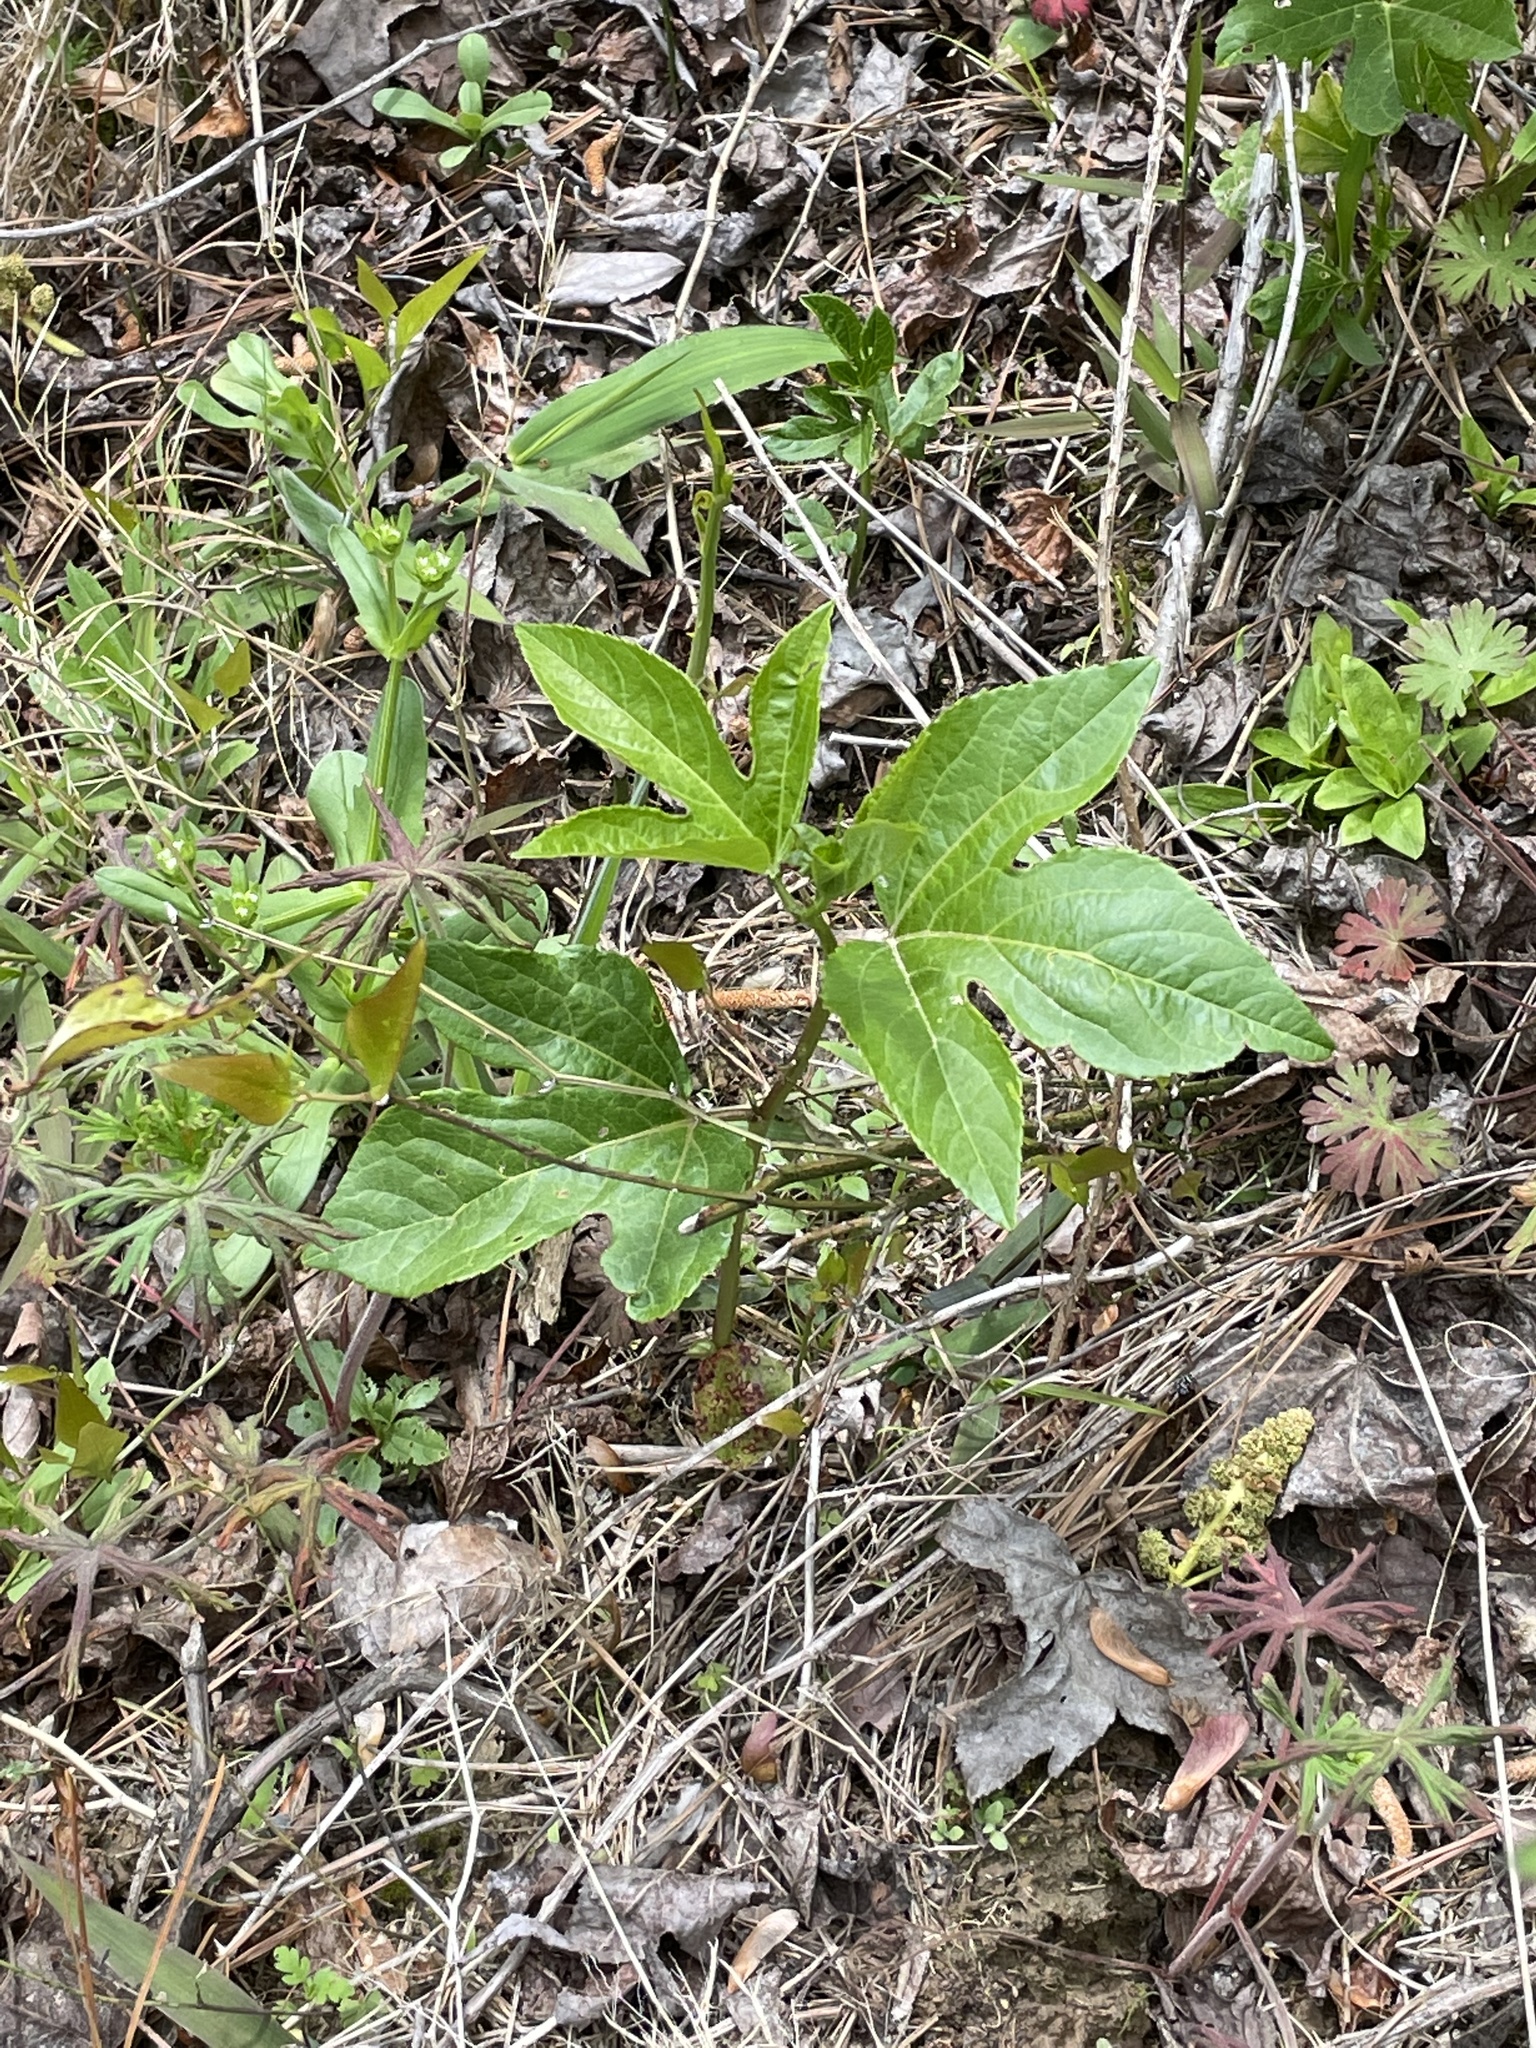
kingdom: Plantae
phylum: Tracheophyta
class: Magnoliopsida
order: Malpighiales
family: Passifloraceae
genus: Passiflora
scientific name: Passiflora incarnata
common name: Apricot-vine
